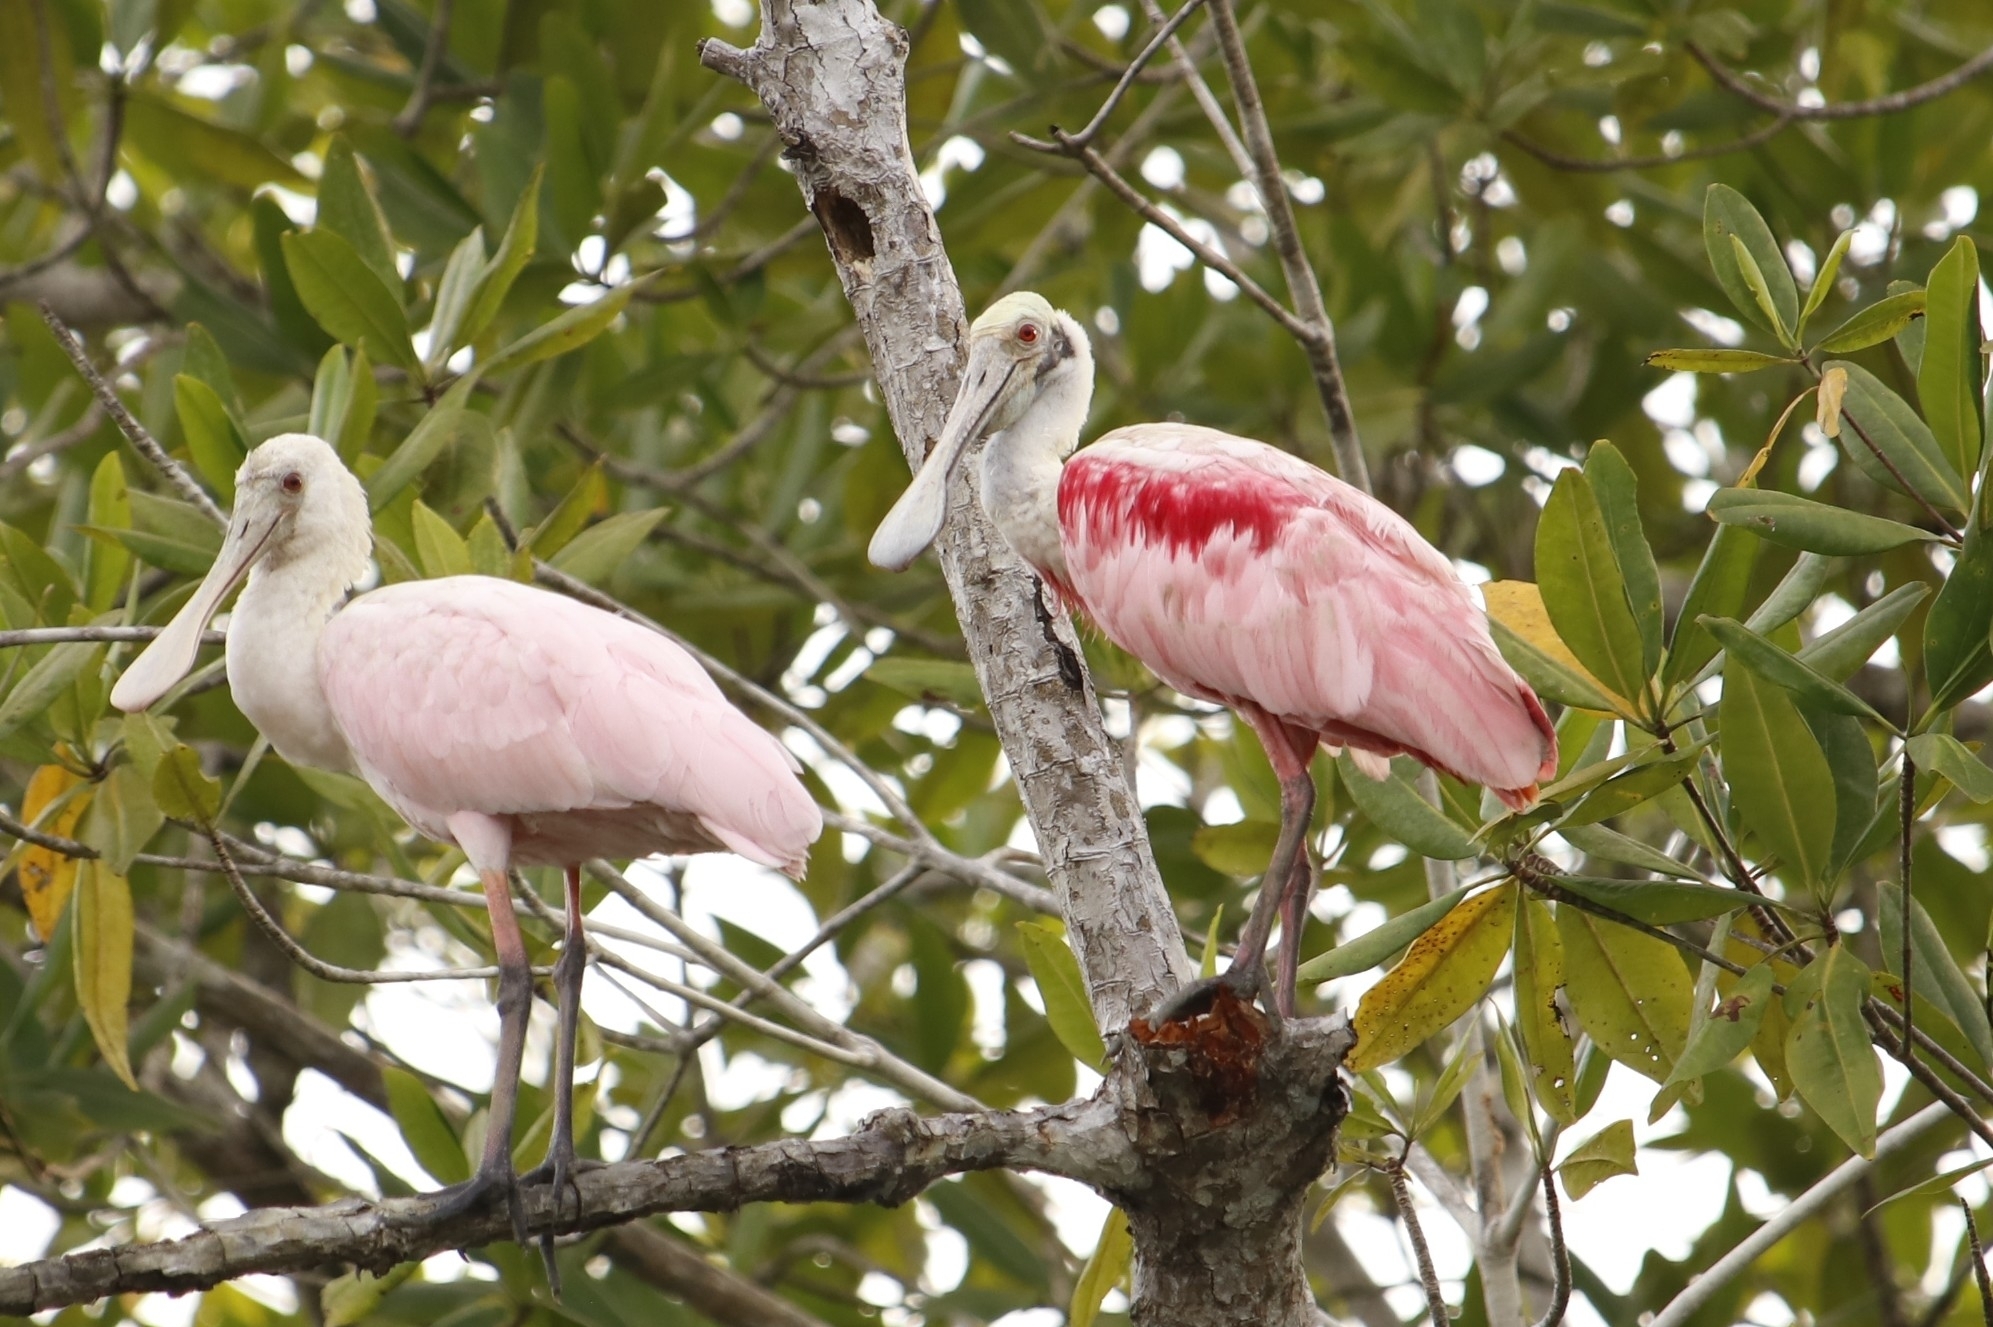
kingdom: Animalia
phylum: Chordata
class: Aves
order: Pelecaniformes
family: Threskiornithidae
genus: Platalea
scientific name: Platalea ajaja
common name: Roseate spoonbill
